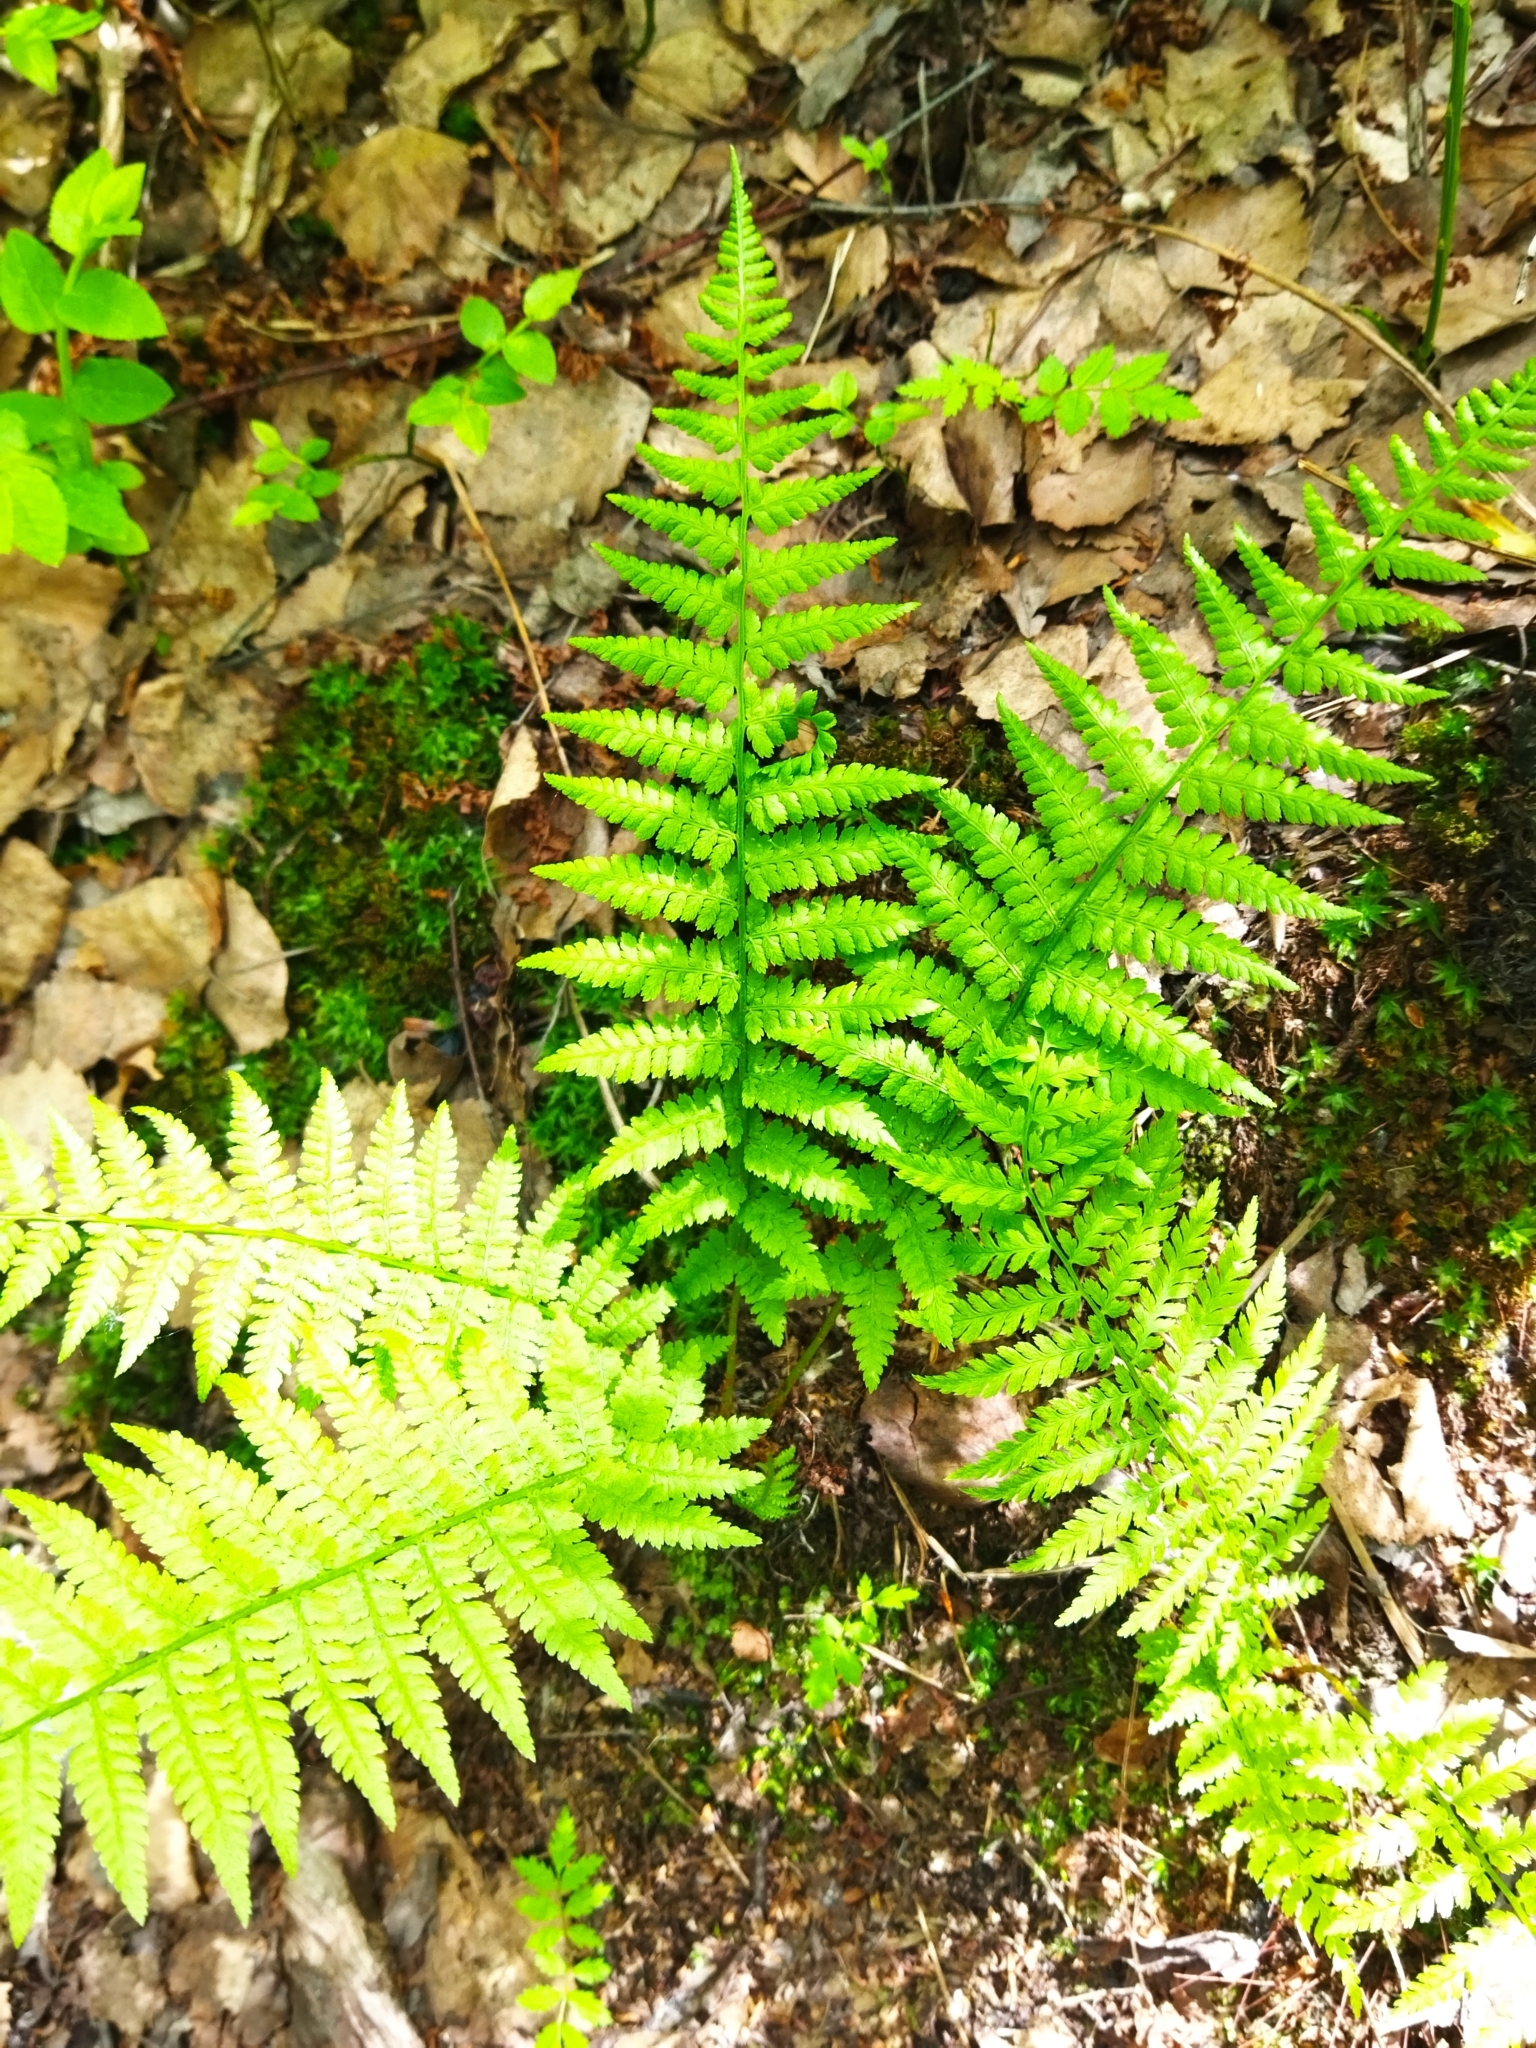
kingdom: Plantae
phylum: Tracheophyta
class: Polypodiopsida
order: Polypodiales
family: Athyriaceae
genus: Athyrium
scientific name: Athyrium filix-femina
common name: Lady fern
